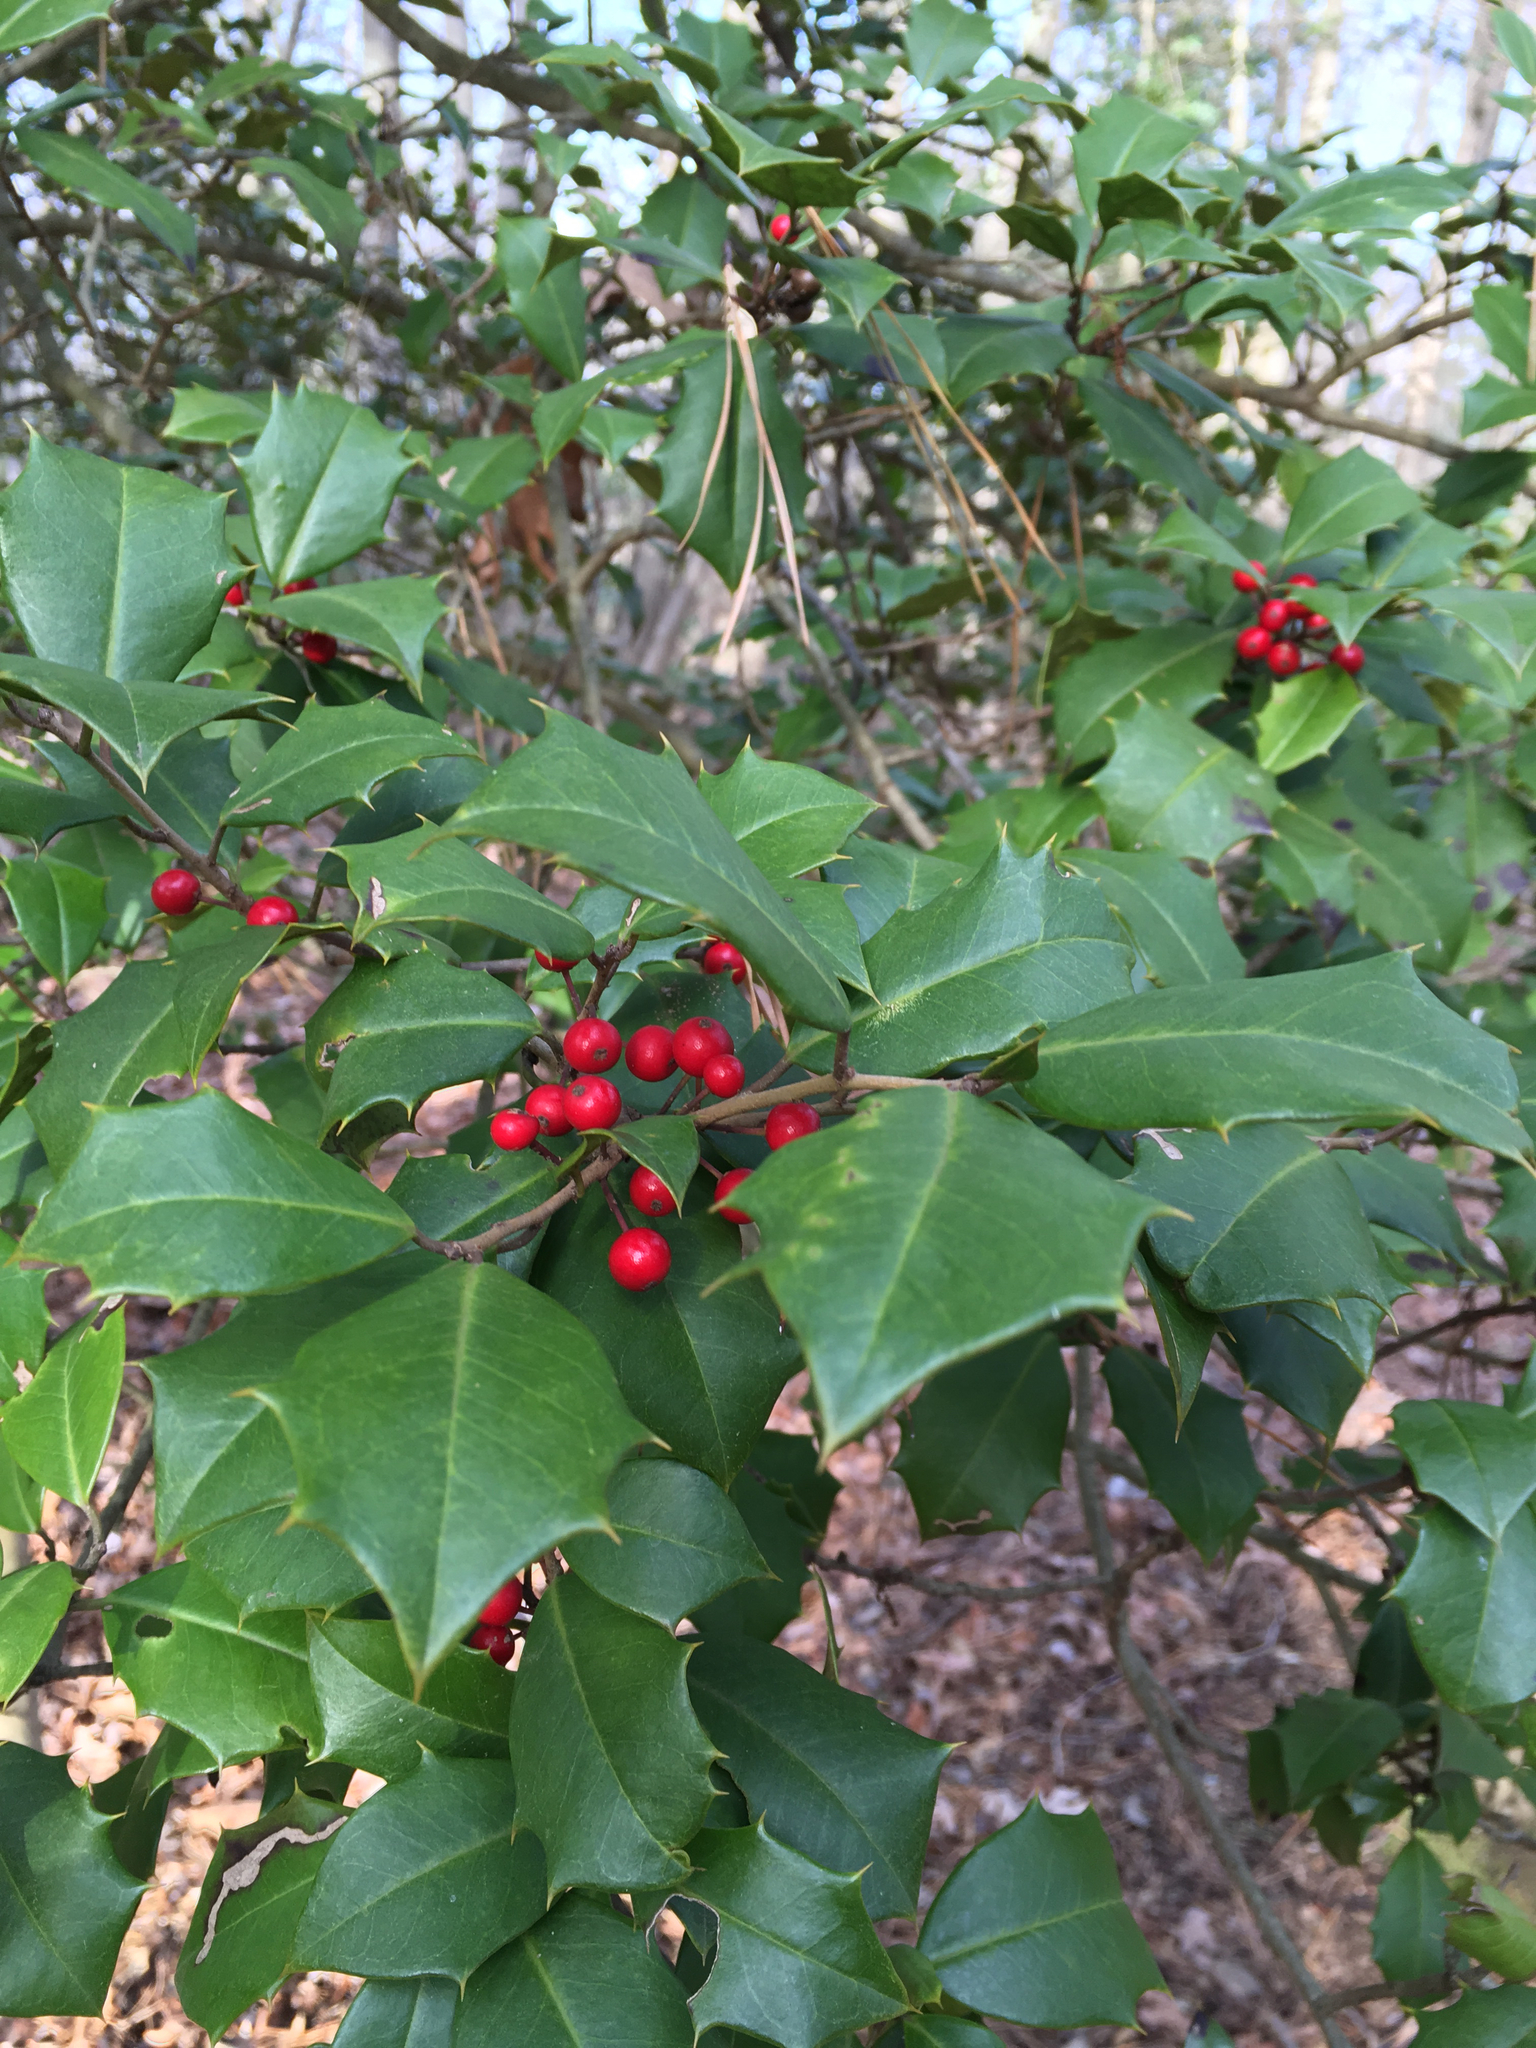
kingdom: Plantae
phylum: Tracheophyta
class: Magnoliopsida
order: Aquifoliales
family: Aquifoliaceae
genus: Ilex
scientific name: Ilex opaca
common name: American holly
